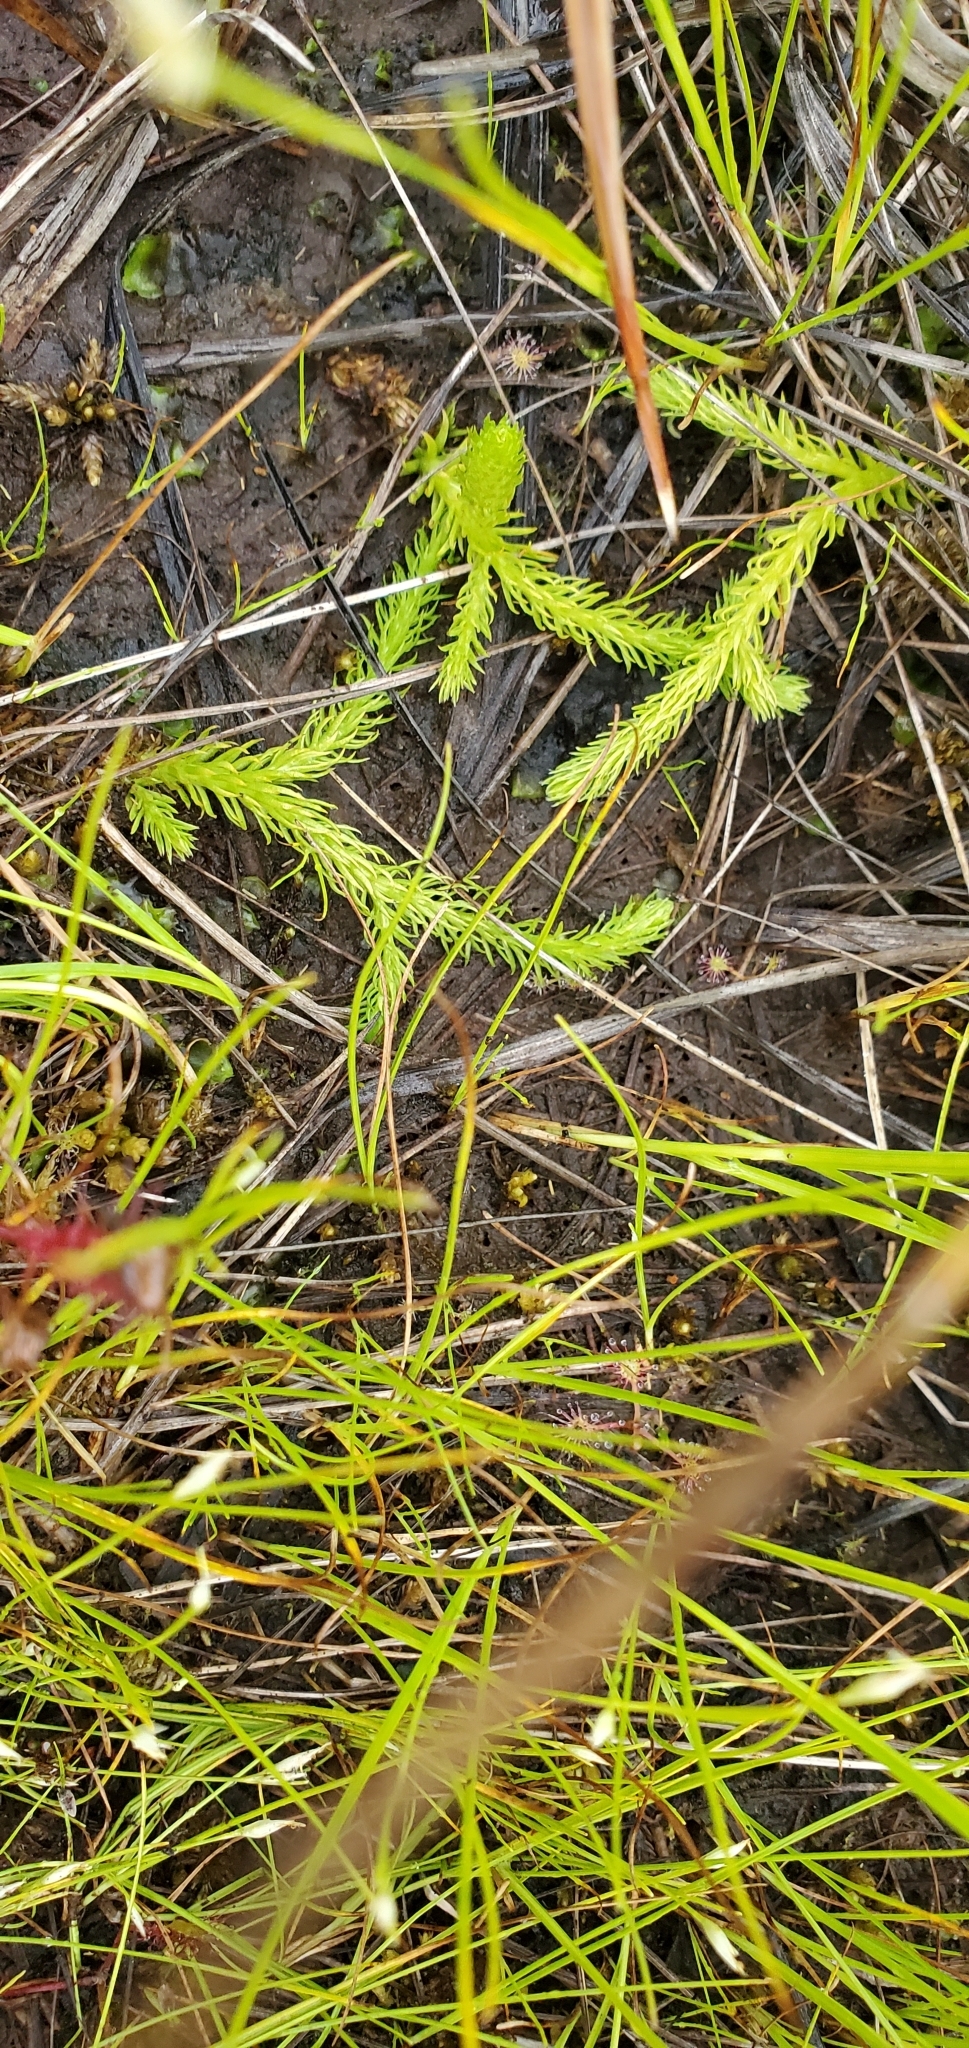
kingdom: Plantae
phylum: Tracheophyta
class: Lycopodiopsida
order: Lycopodiales
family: Lycopodiaceae
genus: Lycopodiella
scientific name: Lycopodiella inundata
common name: Marsh clubmoss
